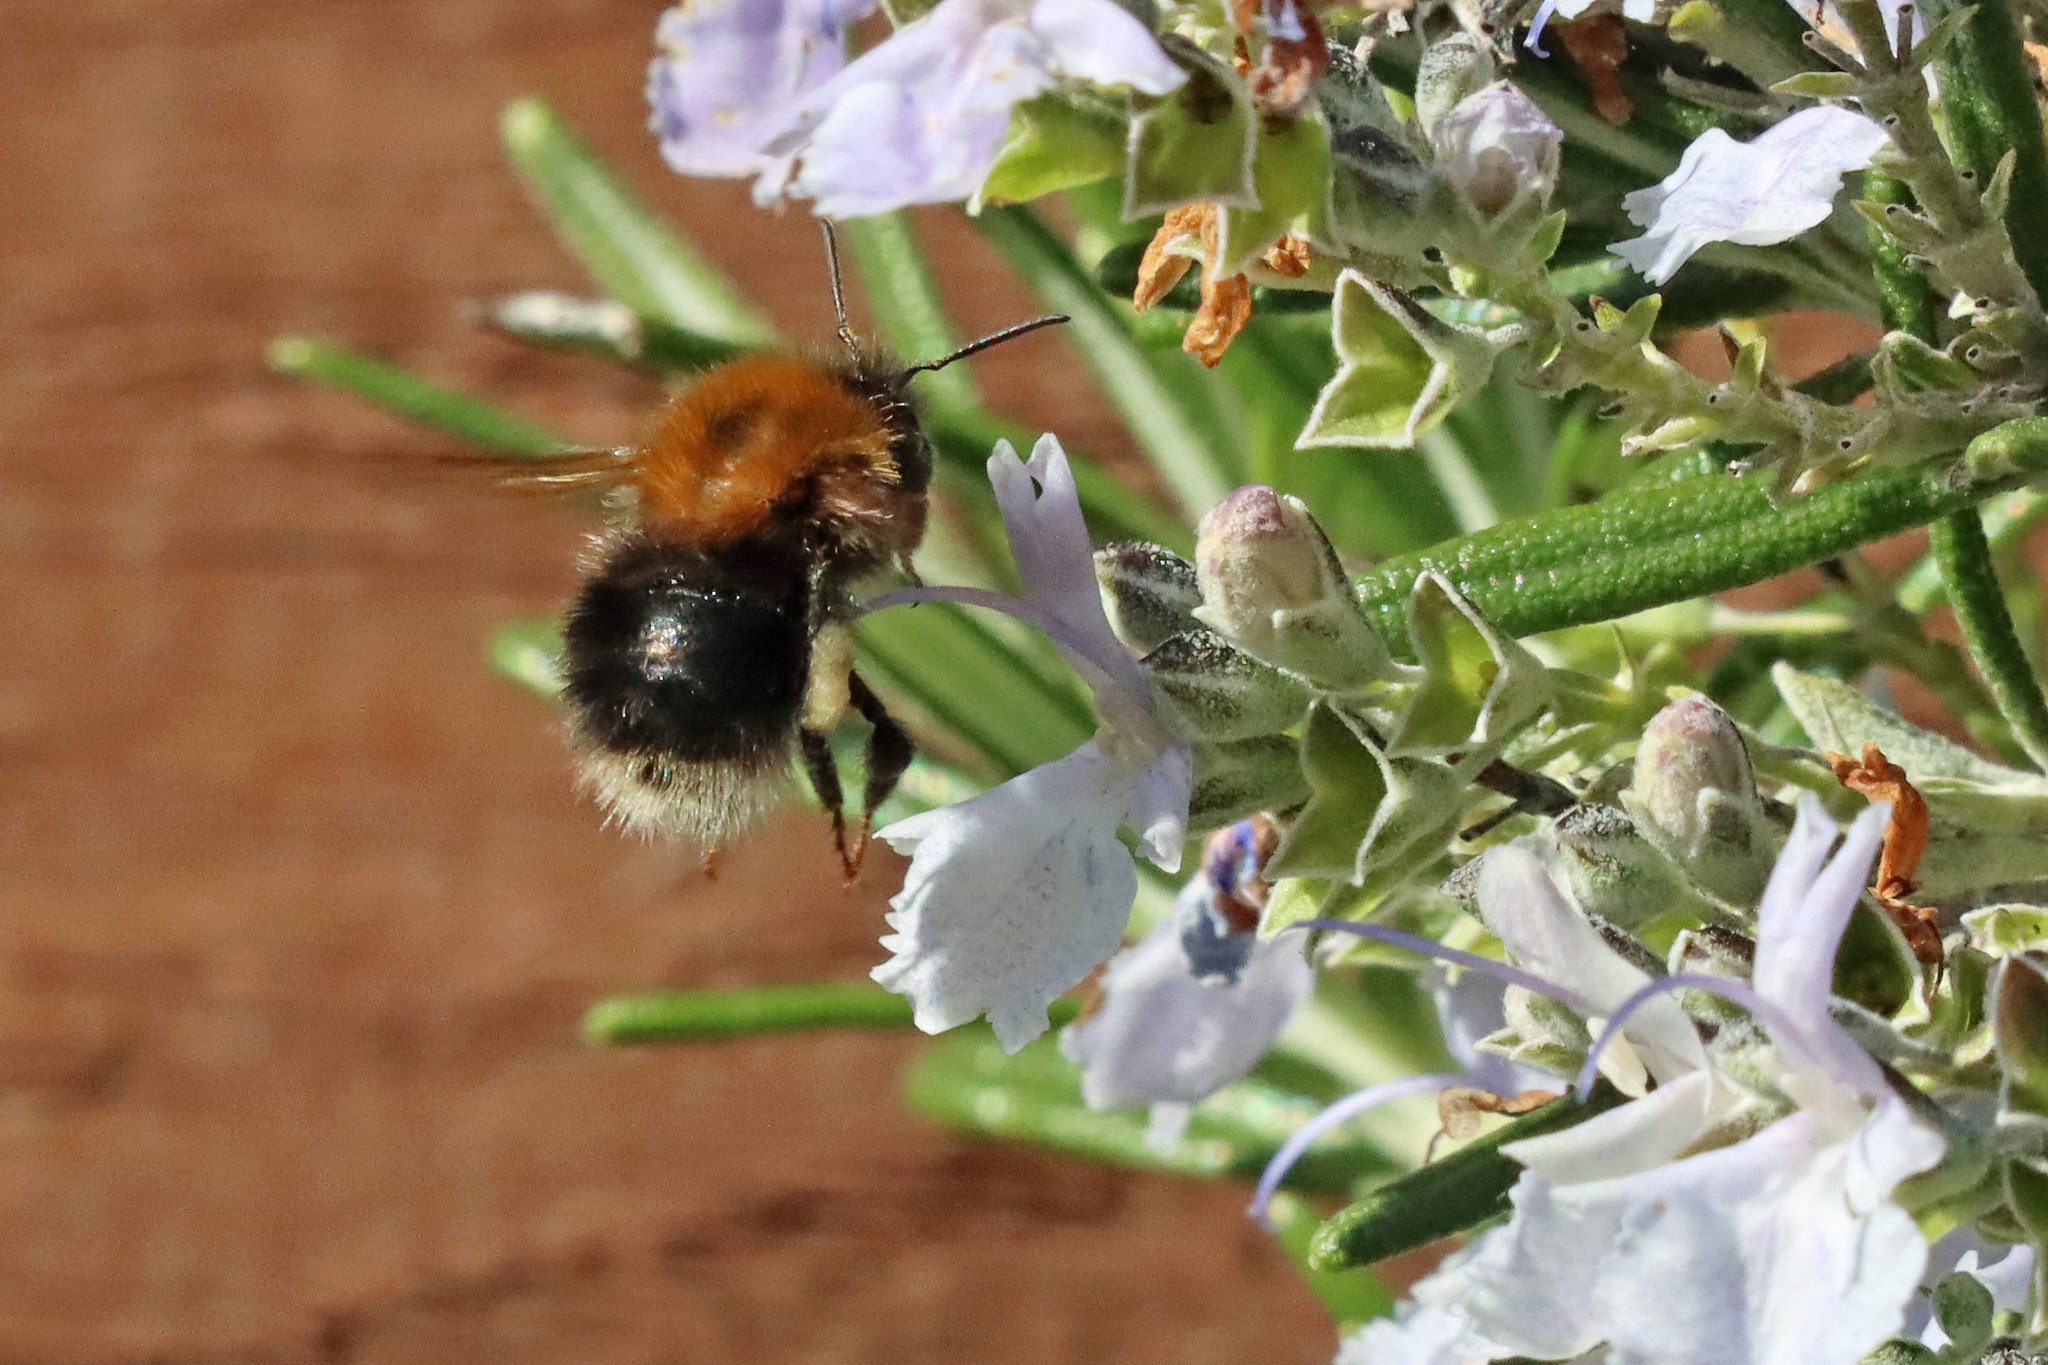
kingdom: Animalia
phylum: Arthropoda
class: Insecta
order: Hymenoptera
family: Apidae
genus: Bombus
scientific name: Bombus hypnorum
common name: New garden bumblebee
